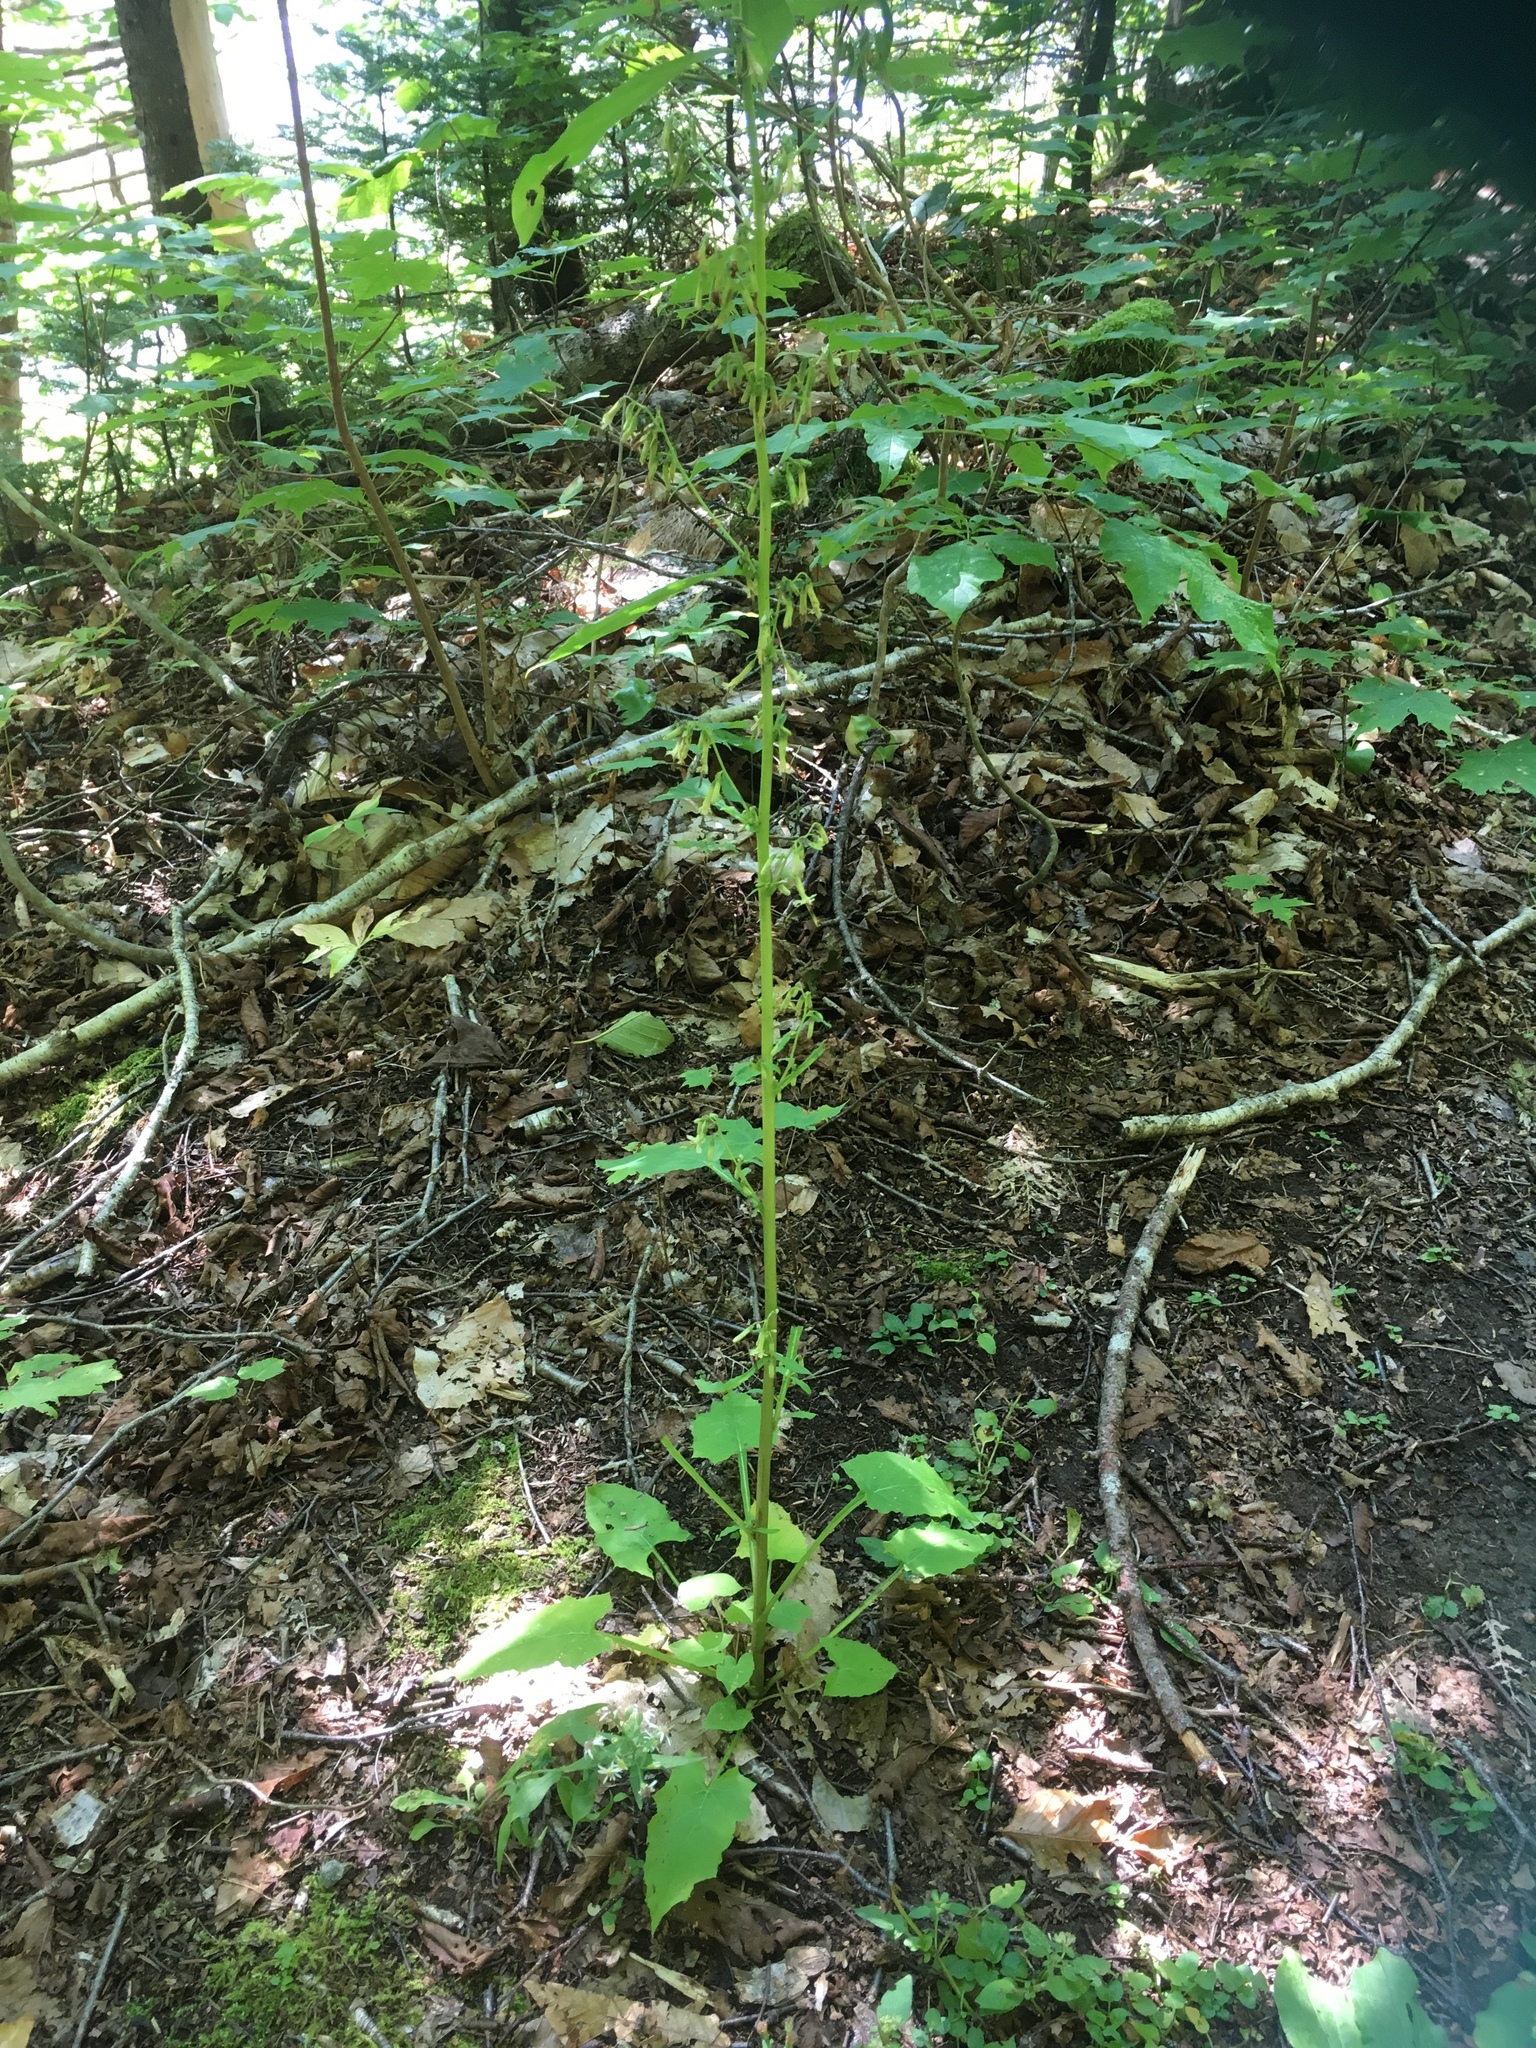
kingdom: Plantae
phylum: Tracheophyta
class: Magnoliopsida
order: Asterales
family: Asteraceae
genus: Nabalus
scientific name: Nabalus trifoliolatus
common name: Gall-of-the-earth
